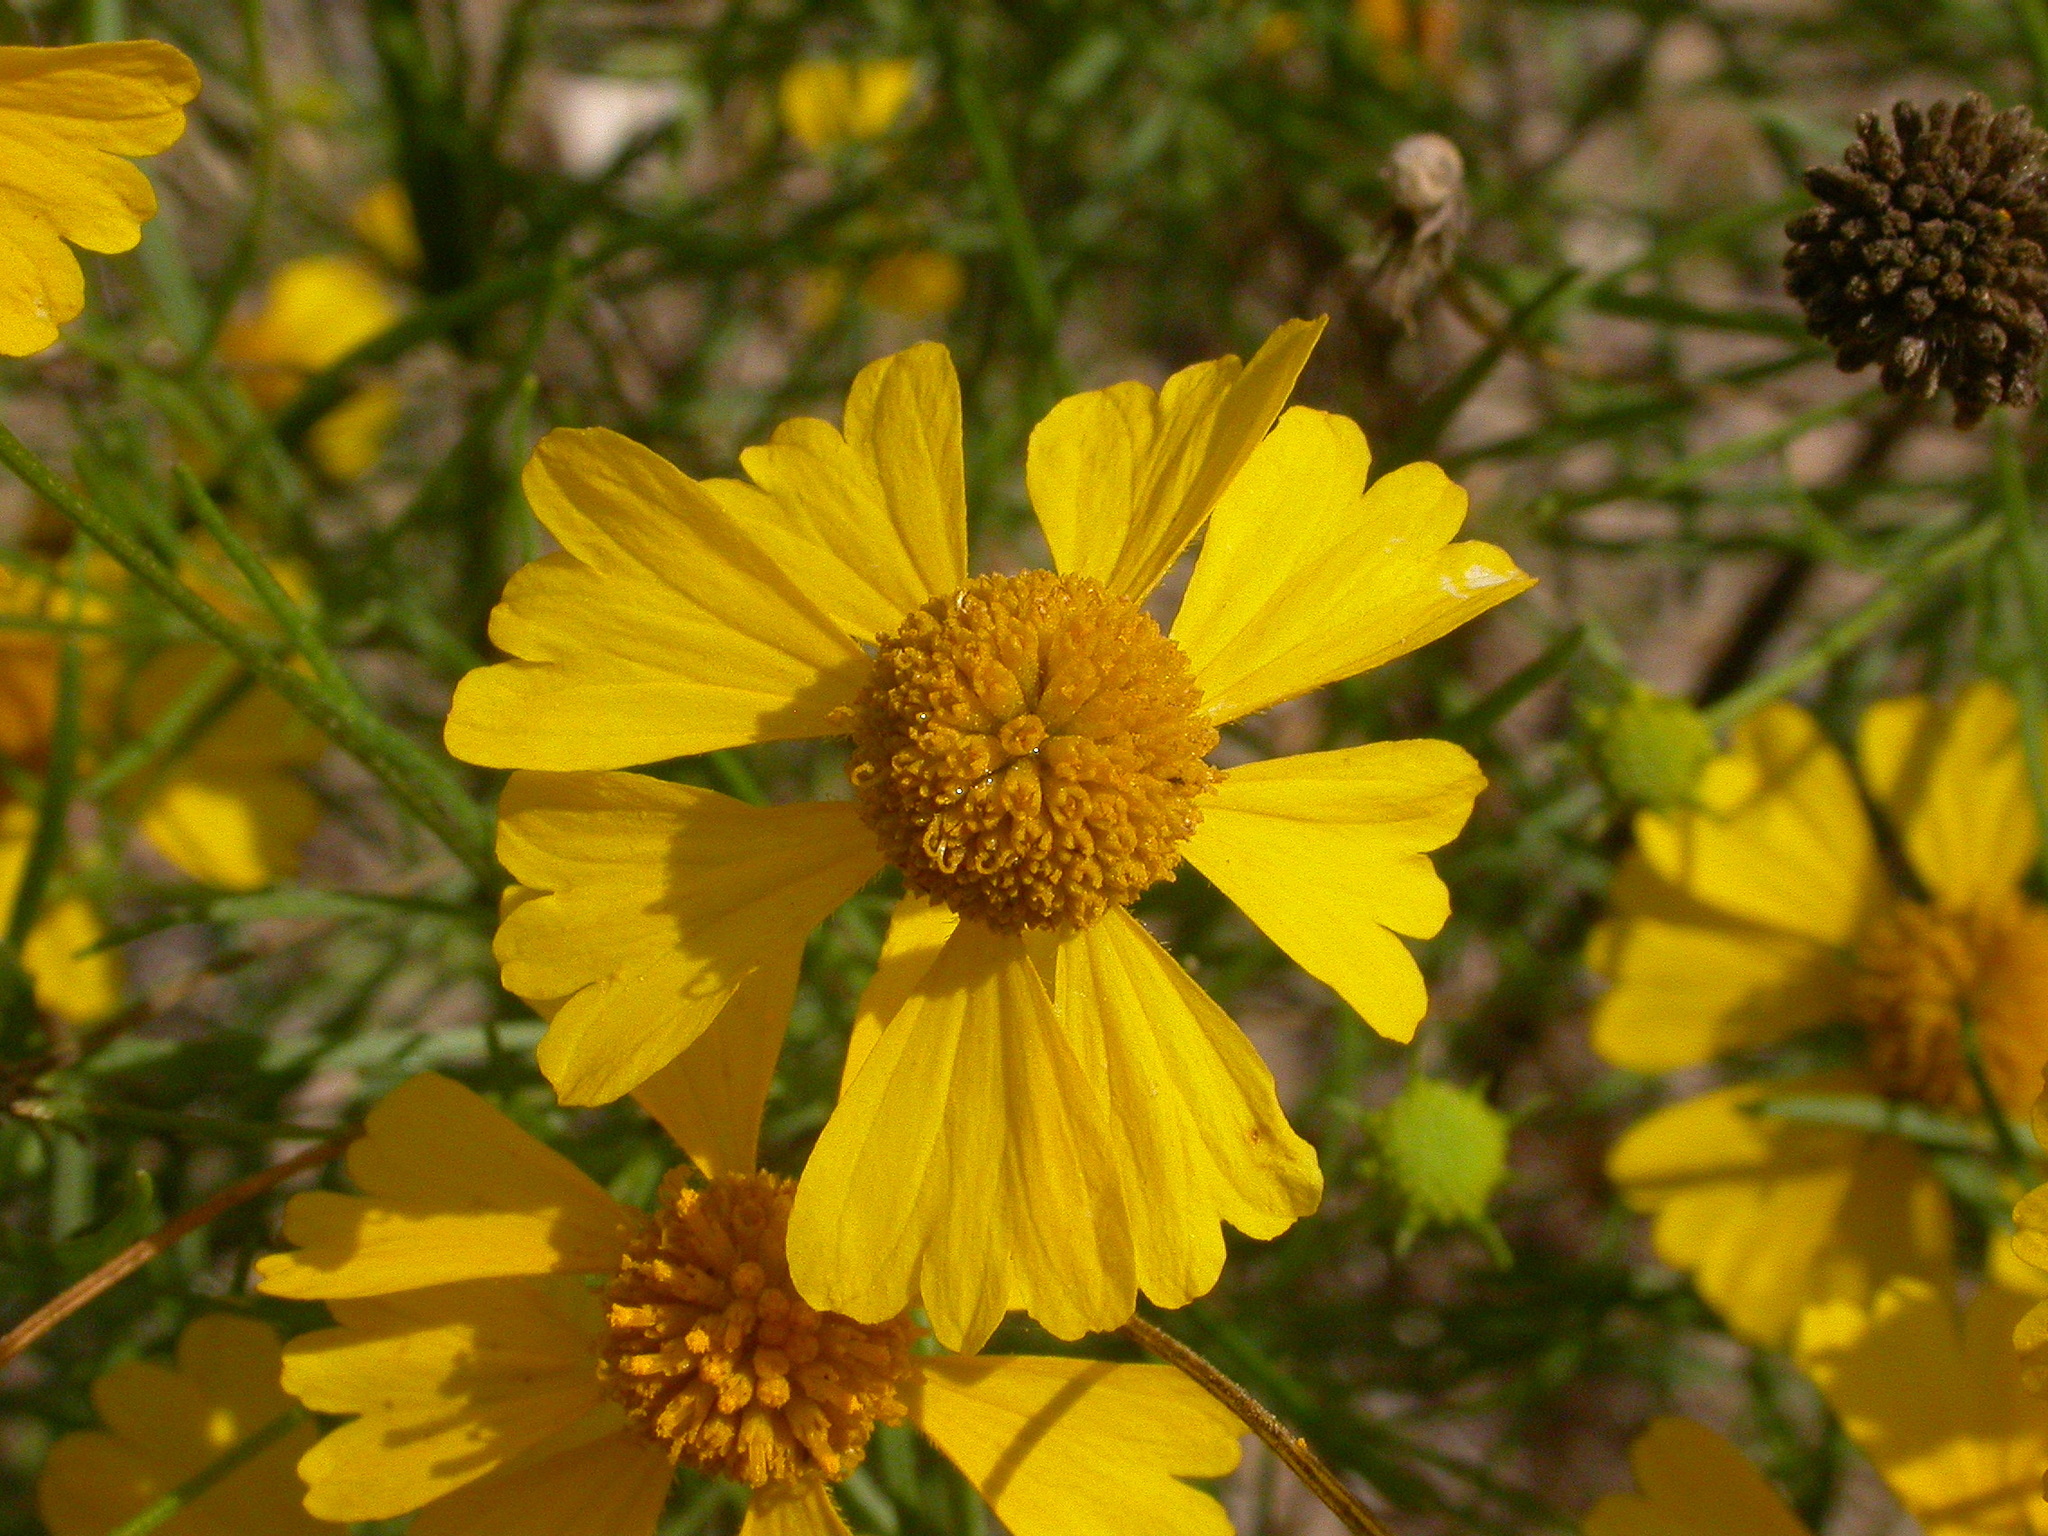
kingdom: Plantae
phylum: Tracheophyta
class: Magnoliopsida
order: Asterales
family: Asteraceae
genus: Helenium
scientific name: Helenium amarum
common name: Bitter sneezeweed
